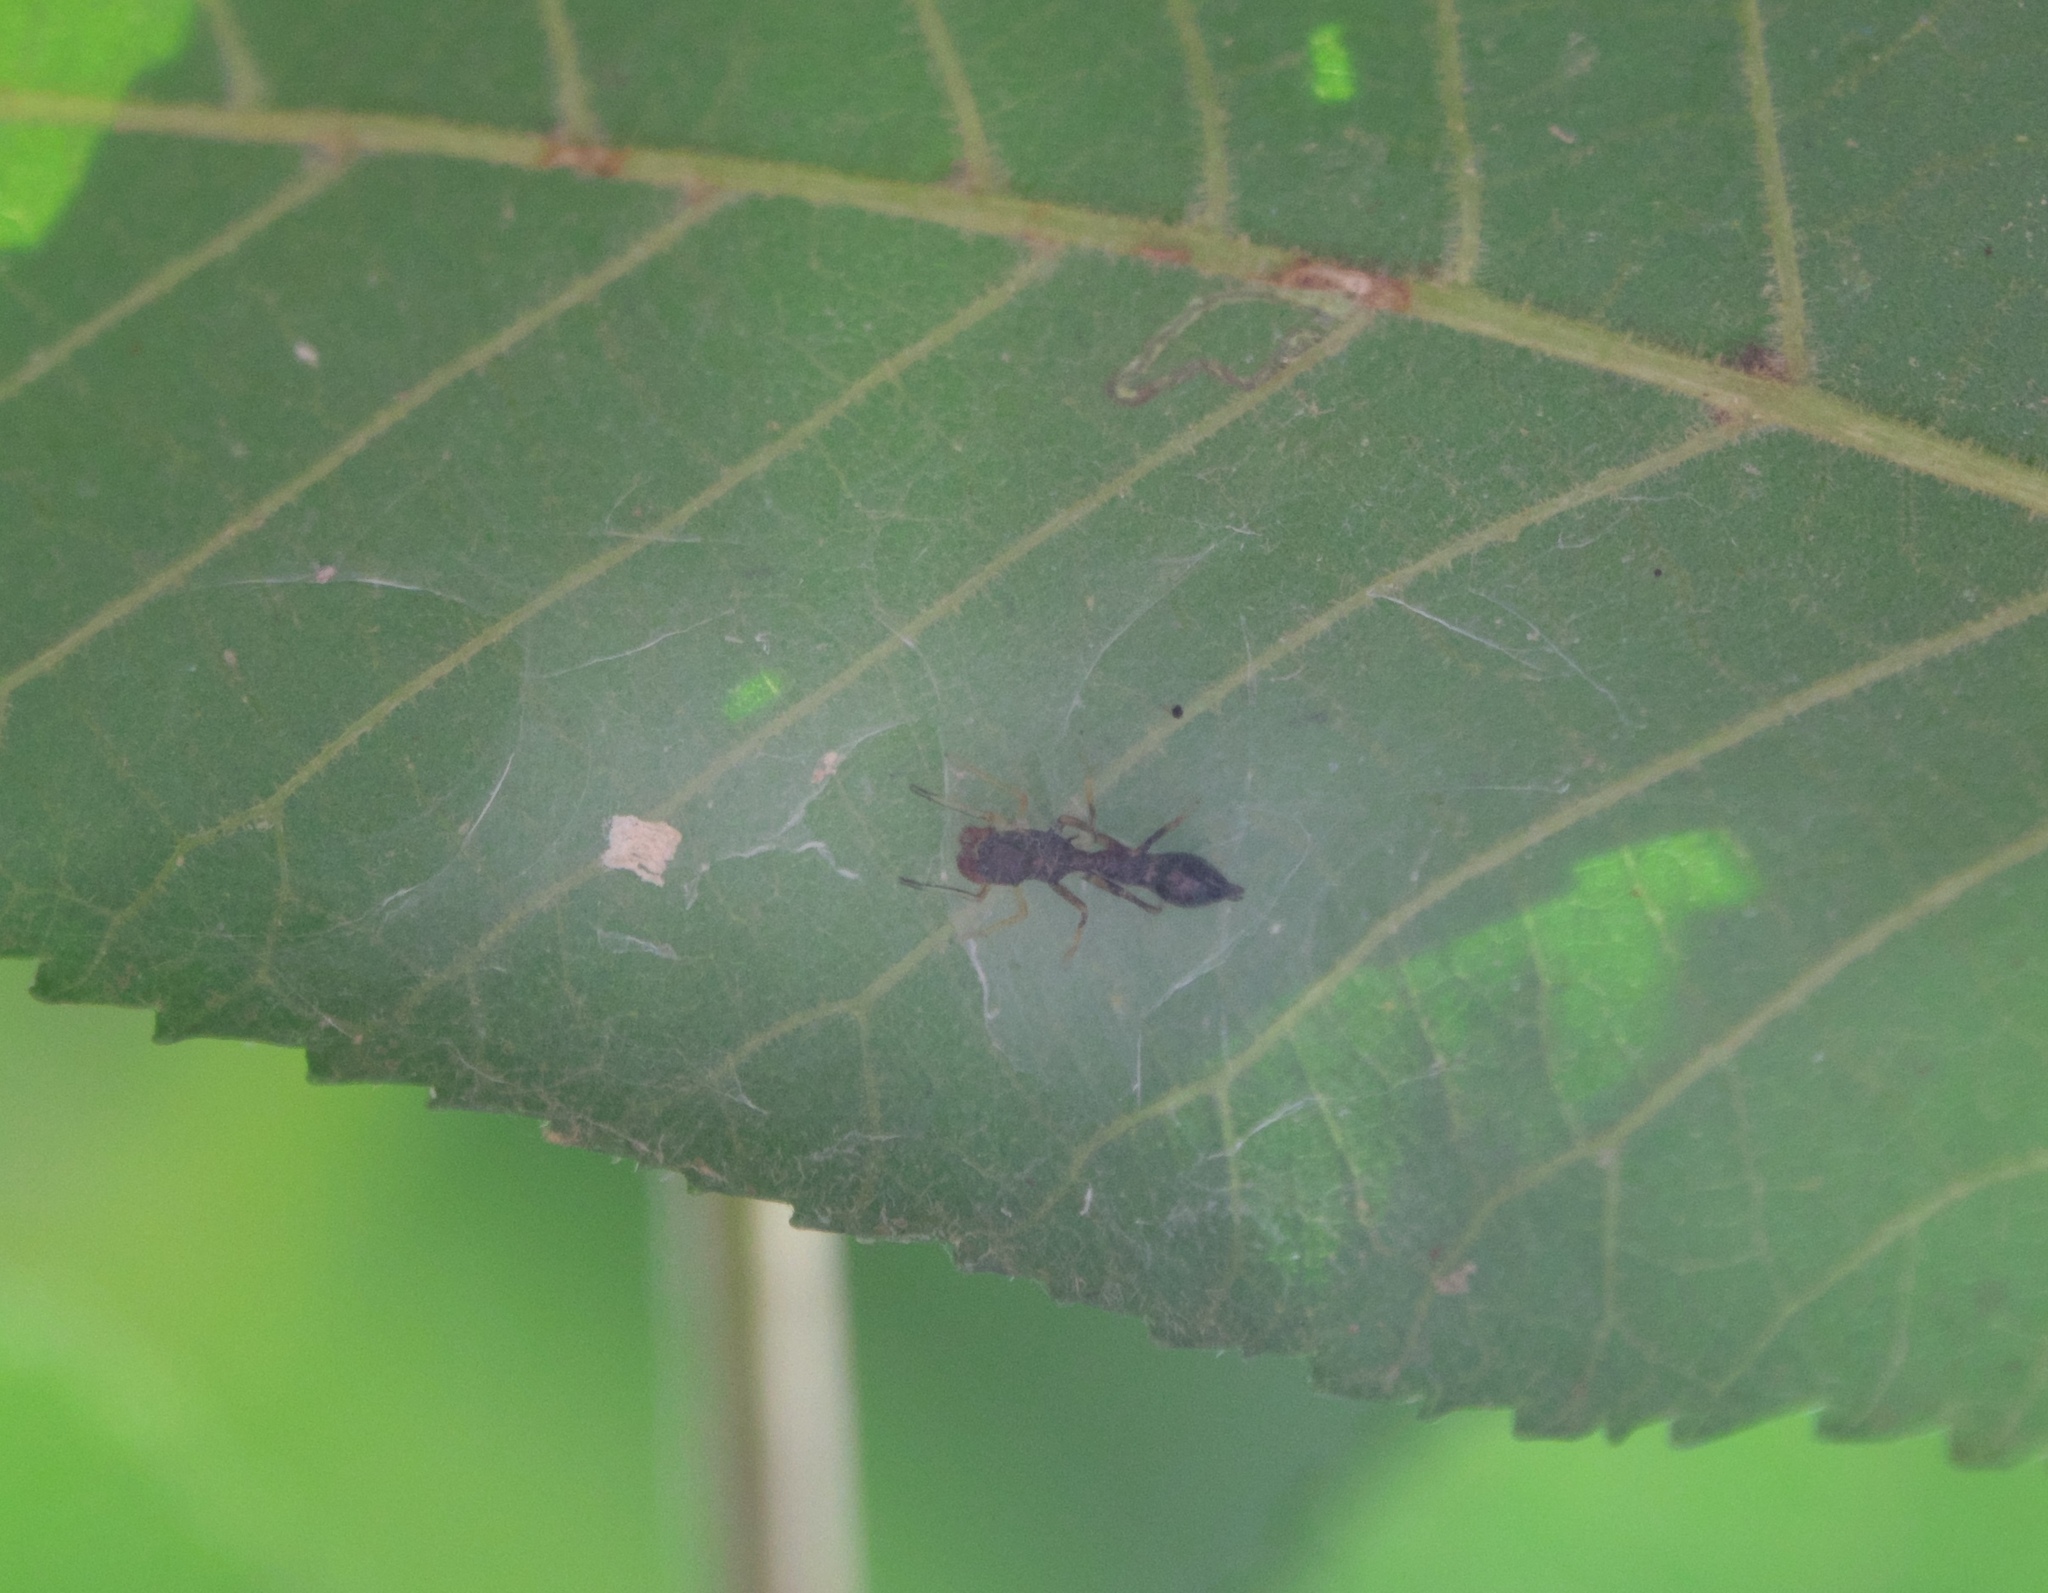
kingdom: Animalia
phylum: Arthropoda
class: Arachnida
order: Araneae
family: Salticidae
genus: Synemosyna
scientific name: Synemosyna formica
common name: Slender ant-mimic jumping spider
